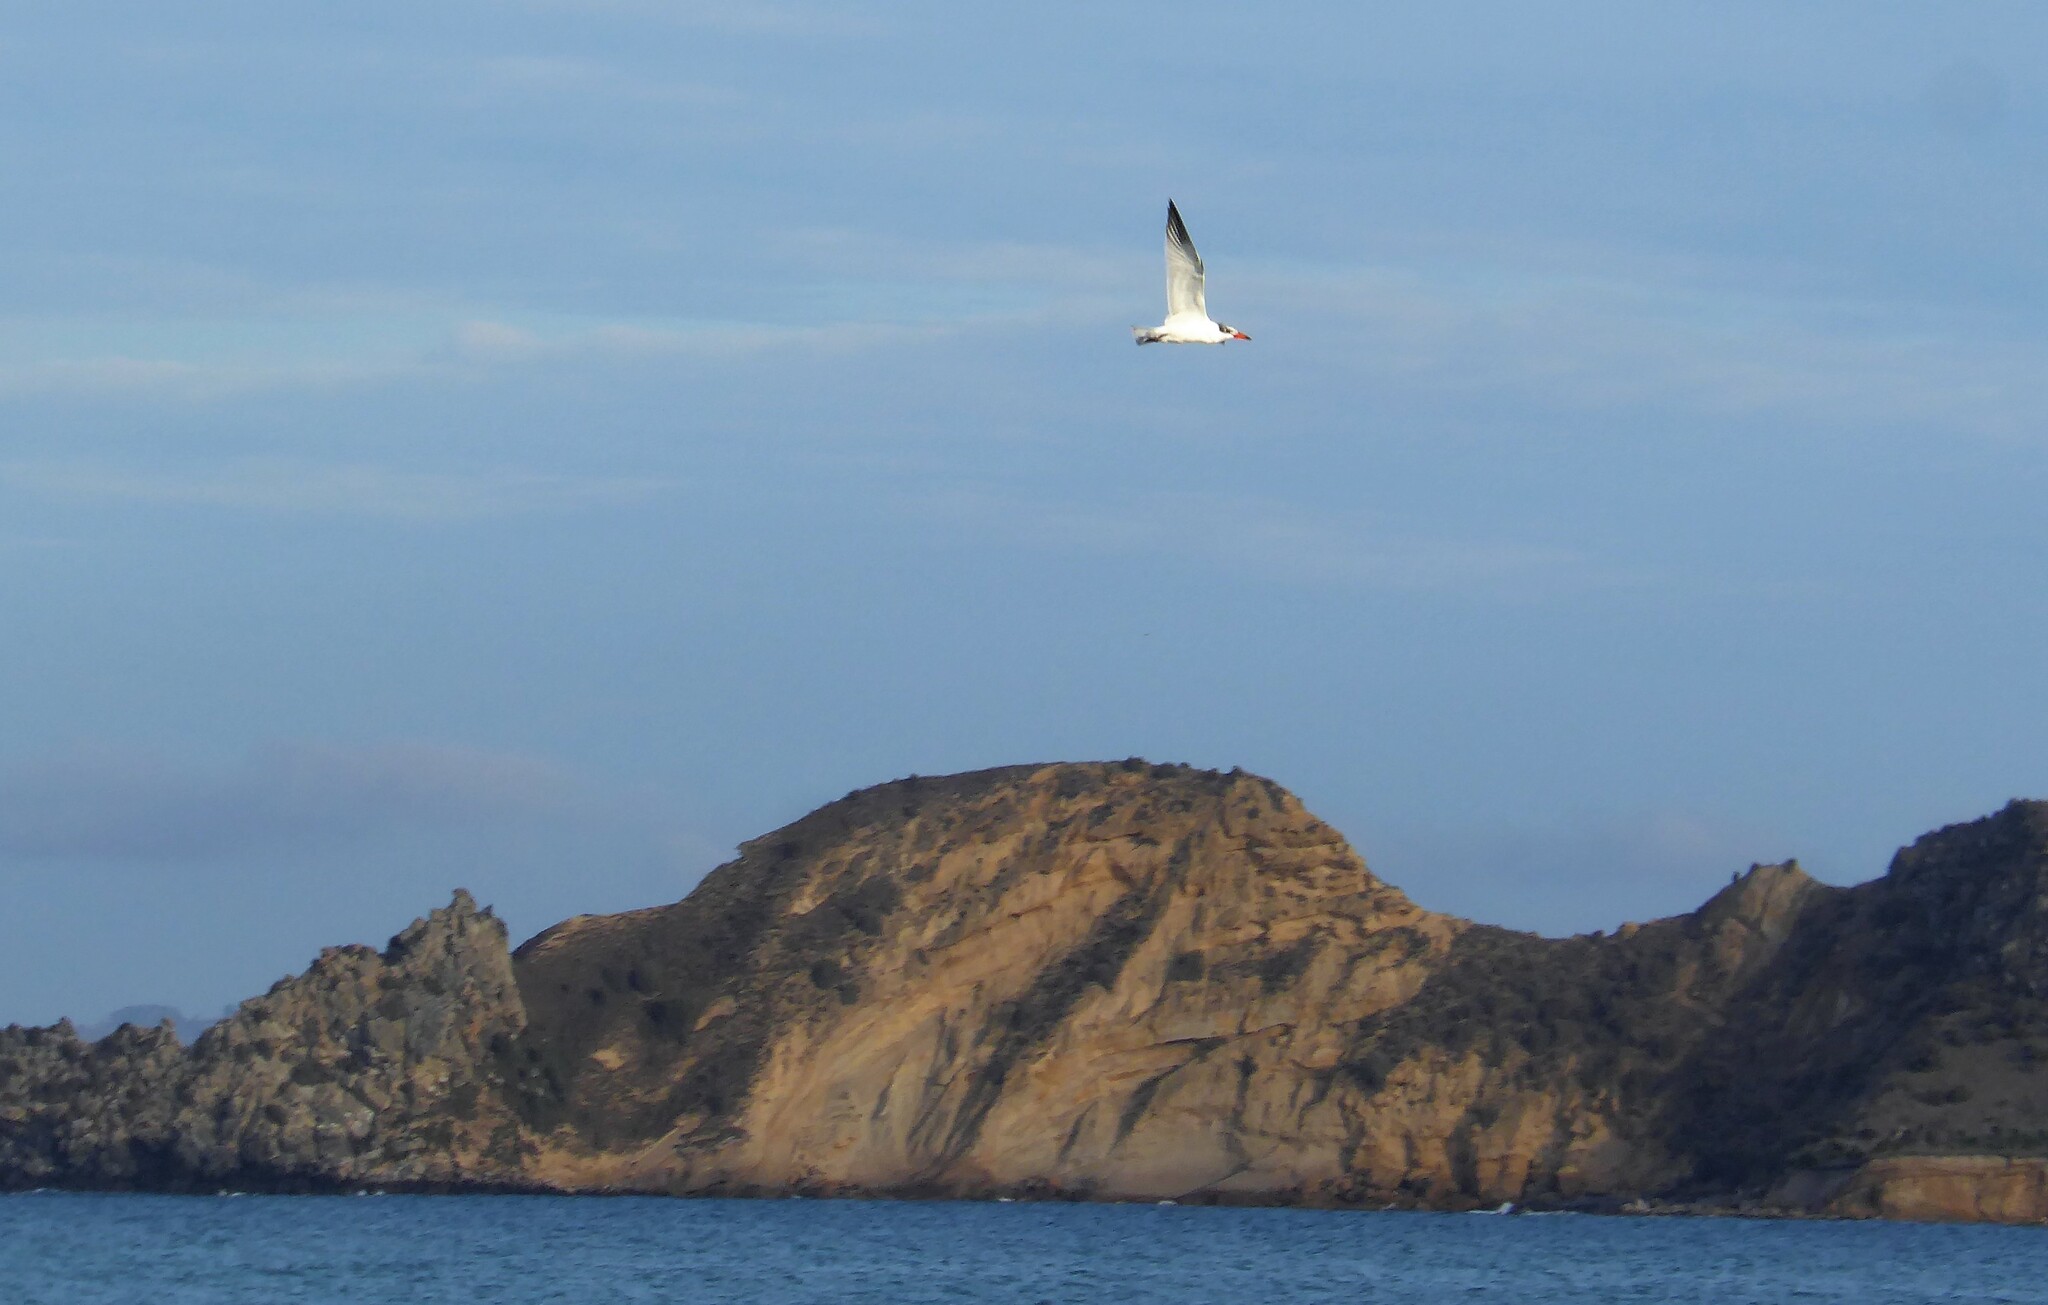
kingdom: Animalia
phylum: Chordata
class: Aves
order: Charadriiformes
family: Laridae
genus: Hydroprogne
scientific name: Hydroprogne caspia
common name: Caspian tern
